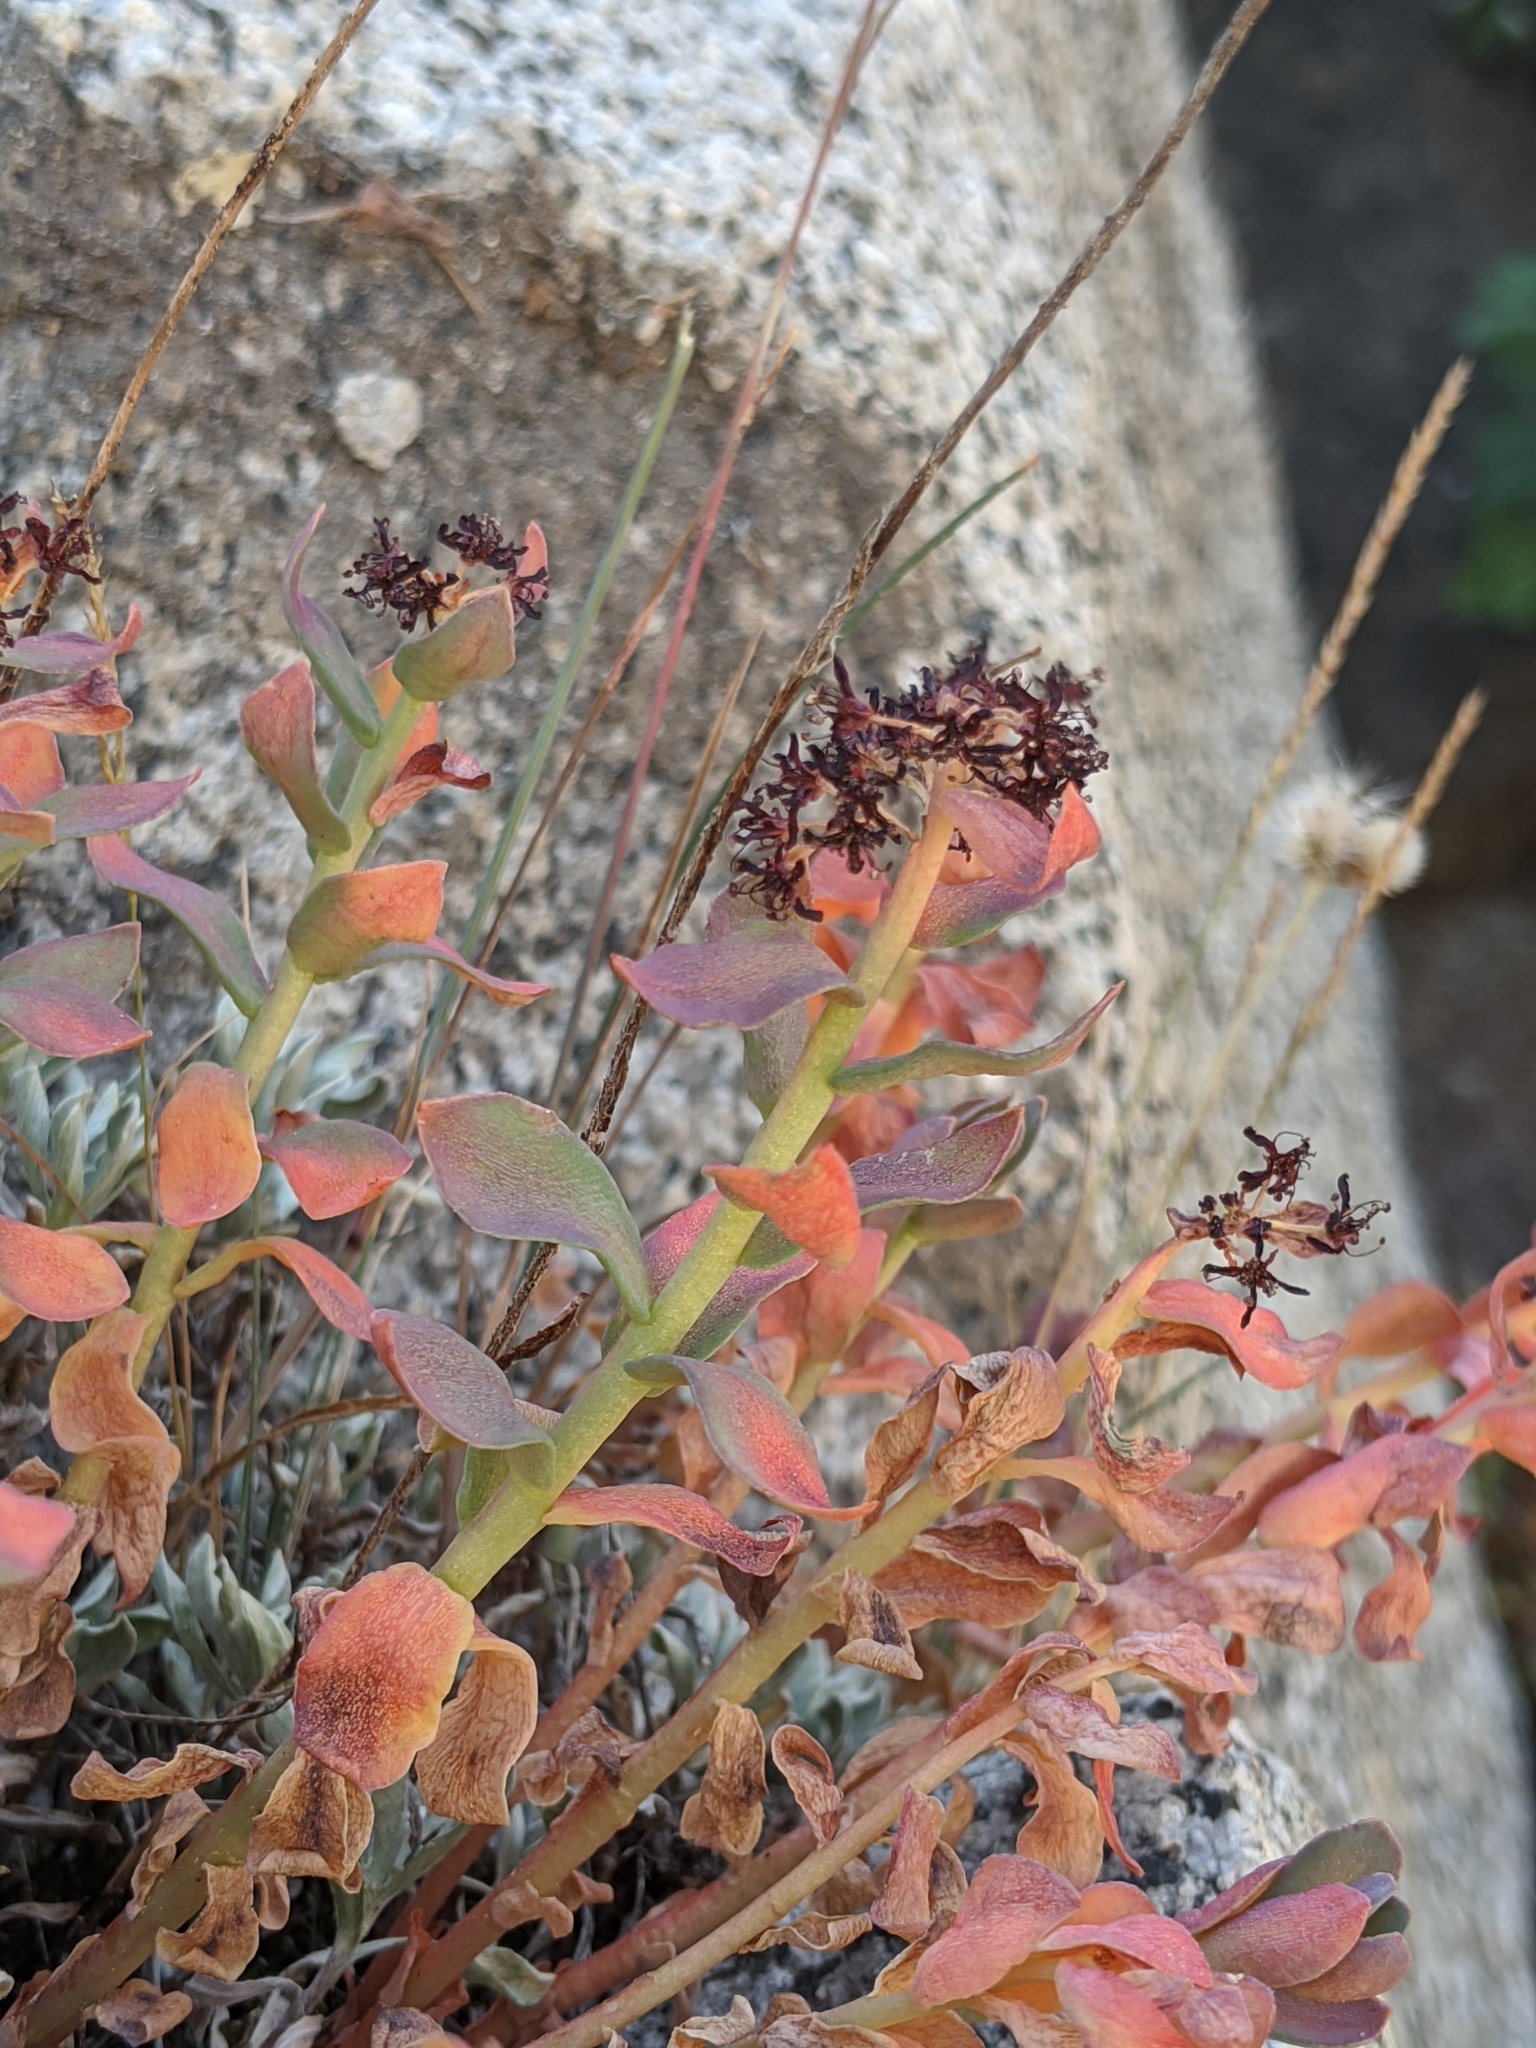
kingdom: Plantae
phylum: Tracheophyta
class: Magnoliopsida
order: Saxifragales
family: Crassulaceae
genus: Rhodiola
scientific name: Rhodiola integrifolia
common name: Western roseroot
